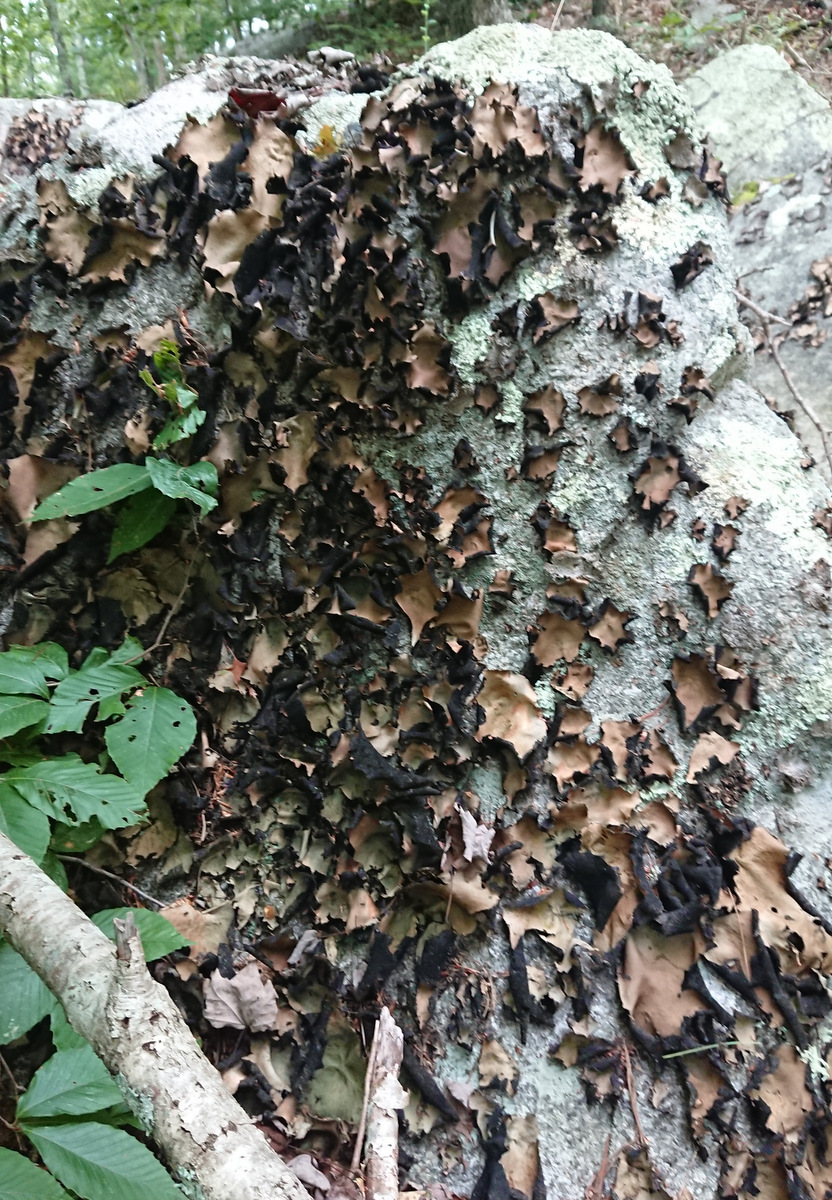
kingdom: Fungi
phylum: Ascomycota
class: Lecanoromycetes
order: Umbilicariales
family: Umbilicariaceae
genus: Umbilicaria
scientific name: Umbilicaria mammulata
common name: Smooth rock tripe
